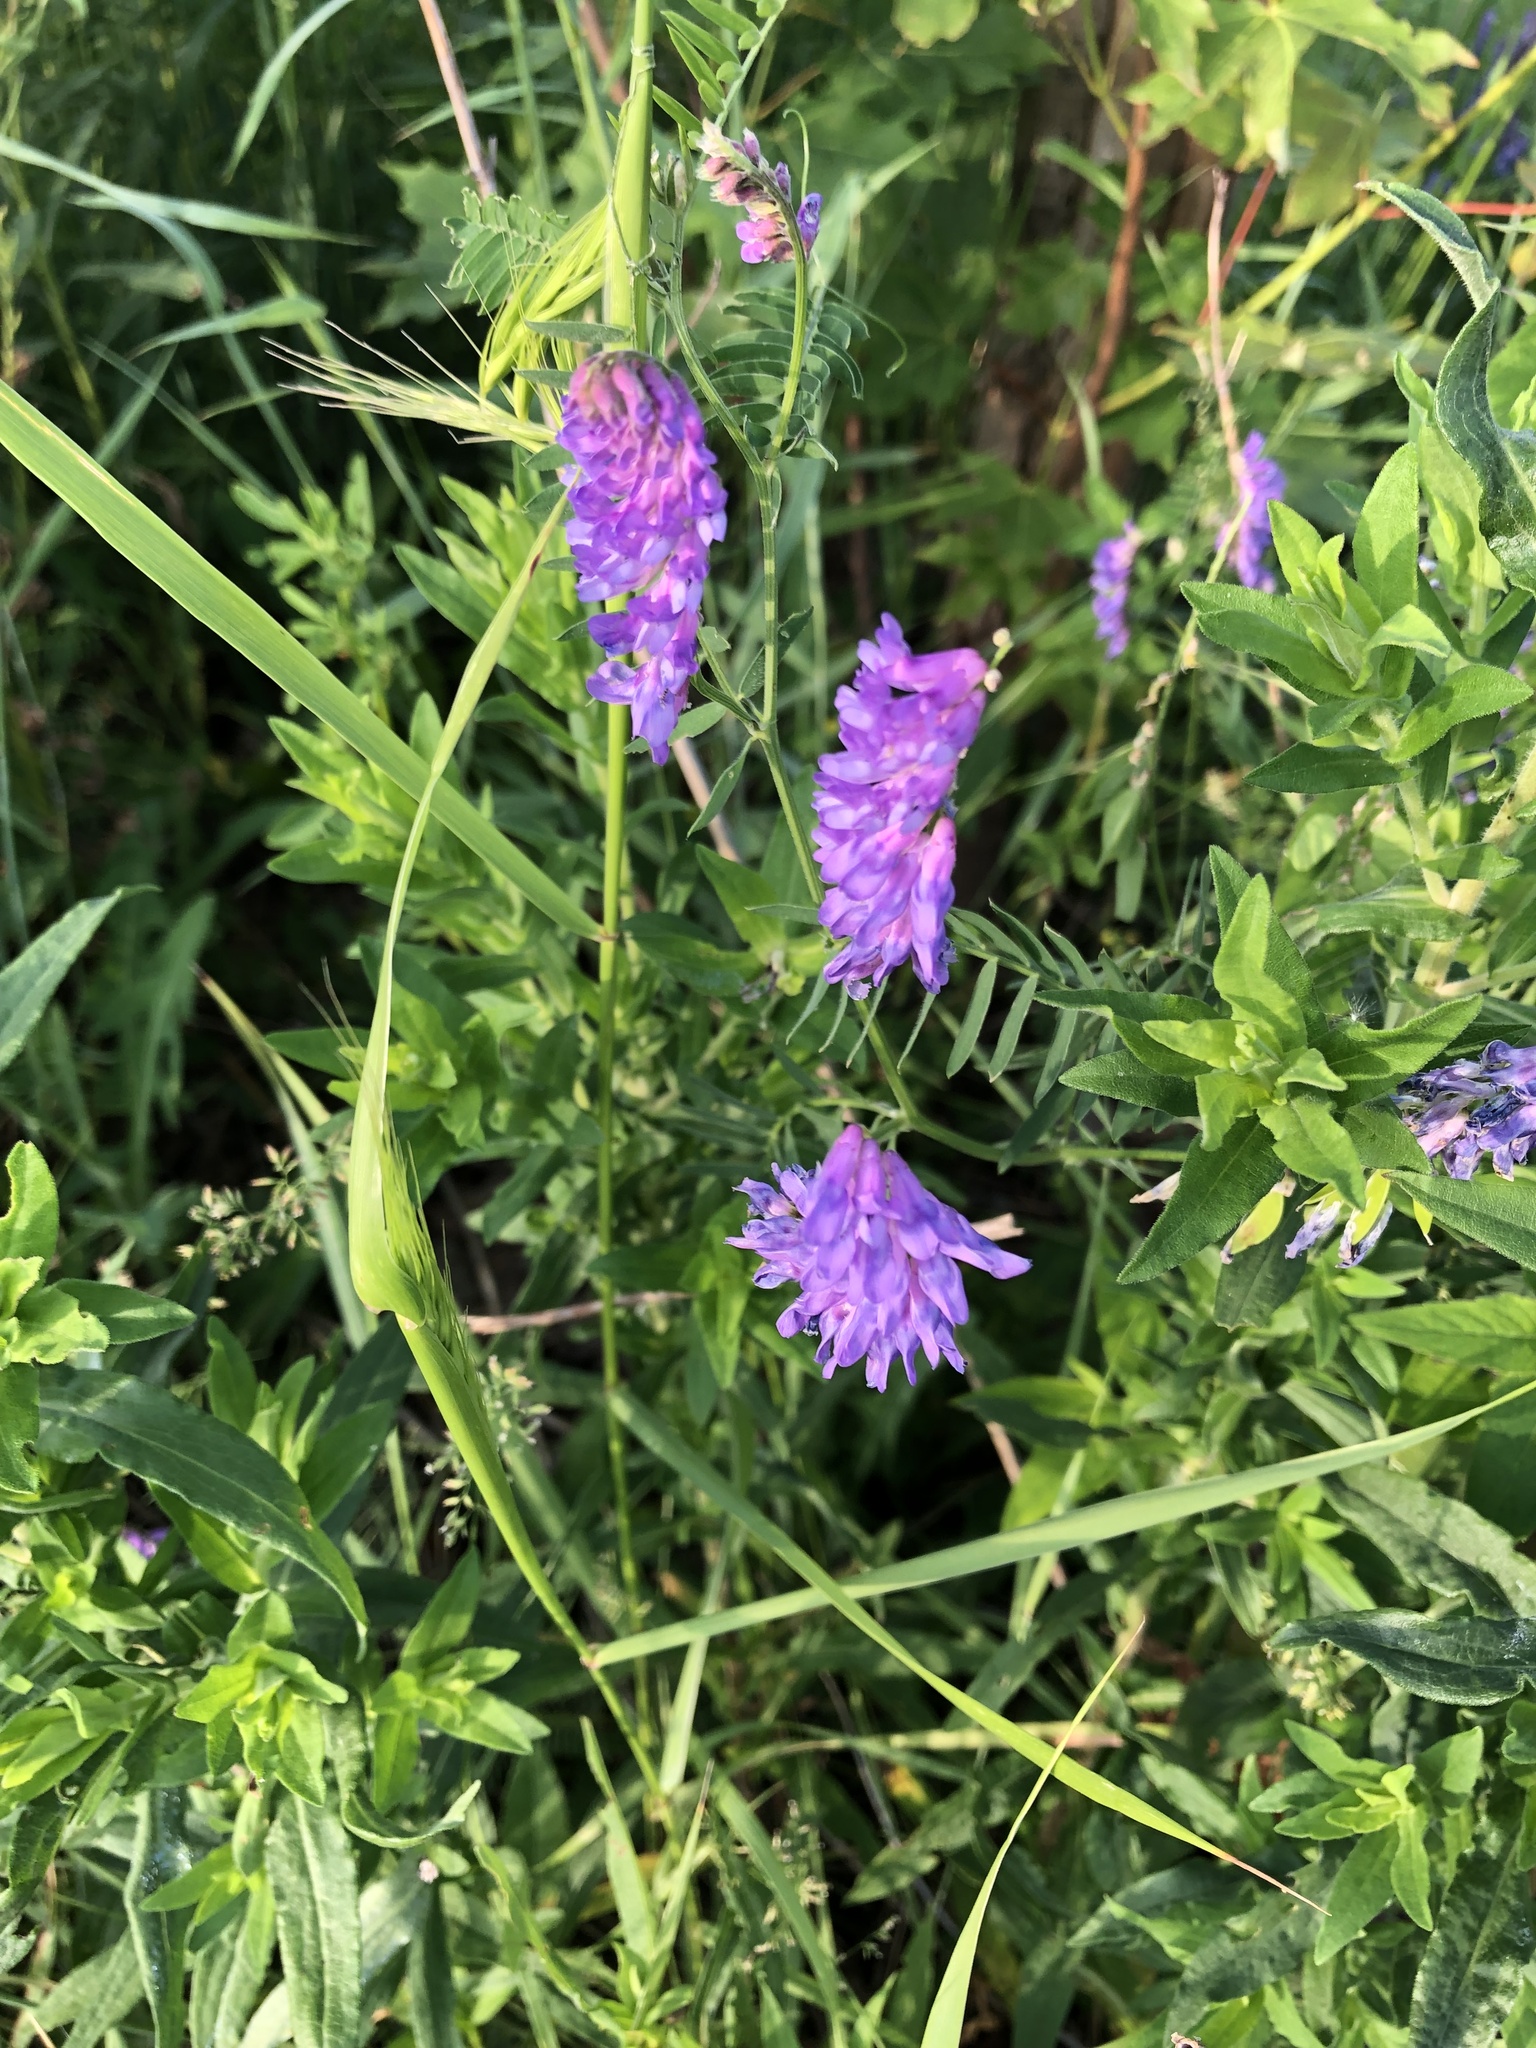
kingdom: Plantae
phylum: Tracheophyta
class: Magnoliopsida
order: Fabales
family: Fabaceae
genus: Vicia
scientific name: Vicia cracca
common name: Bird vetch
